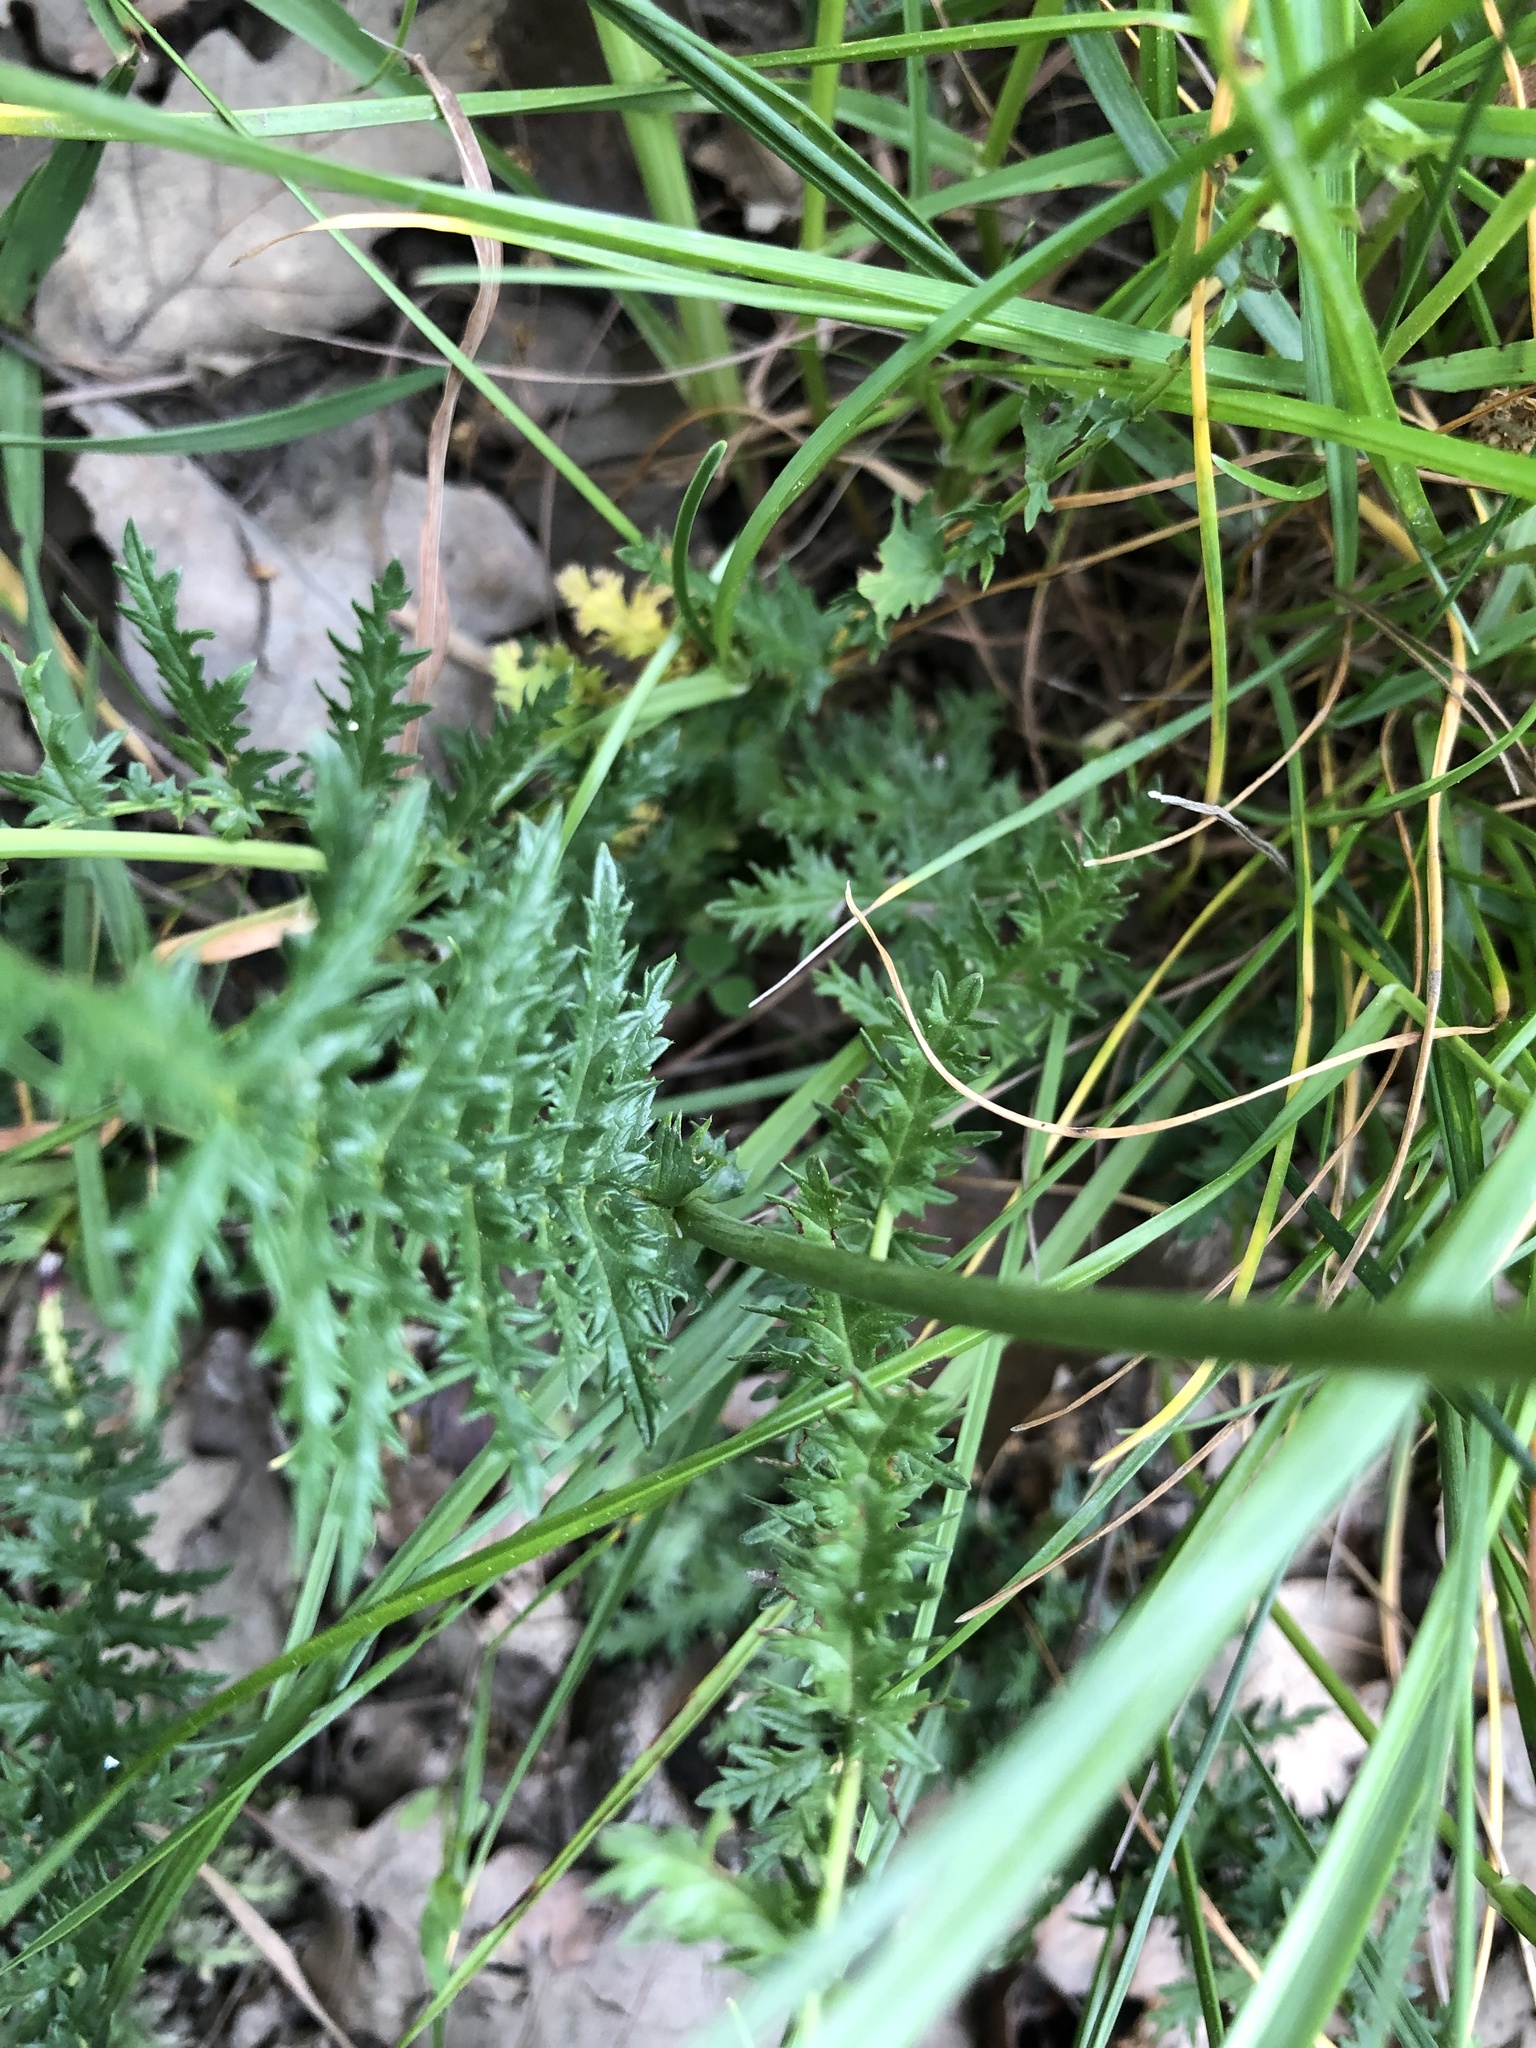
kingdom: Plantae
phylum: Tracheophyta
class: Magnoliopsida
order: Rosales
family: Rosaceae
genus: Filipendula
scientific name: Filipendula vulgaris
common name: Dropwort
